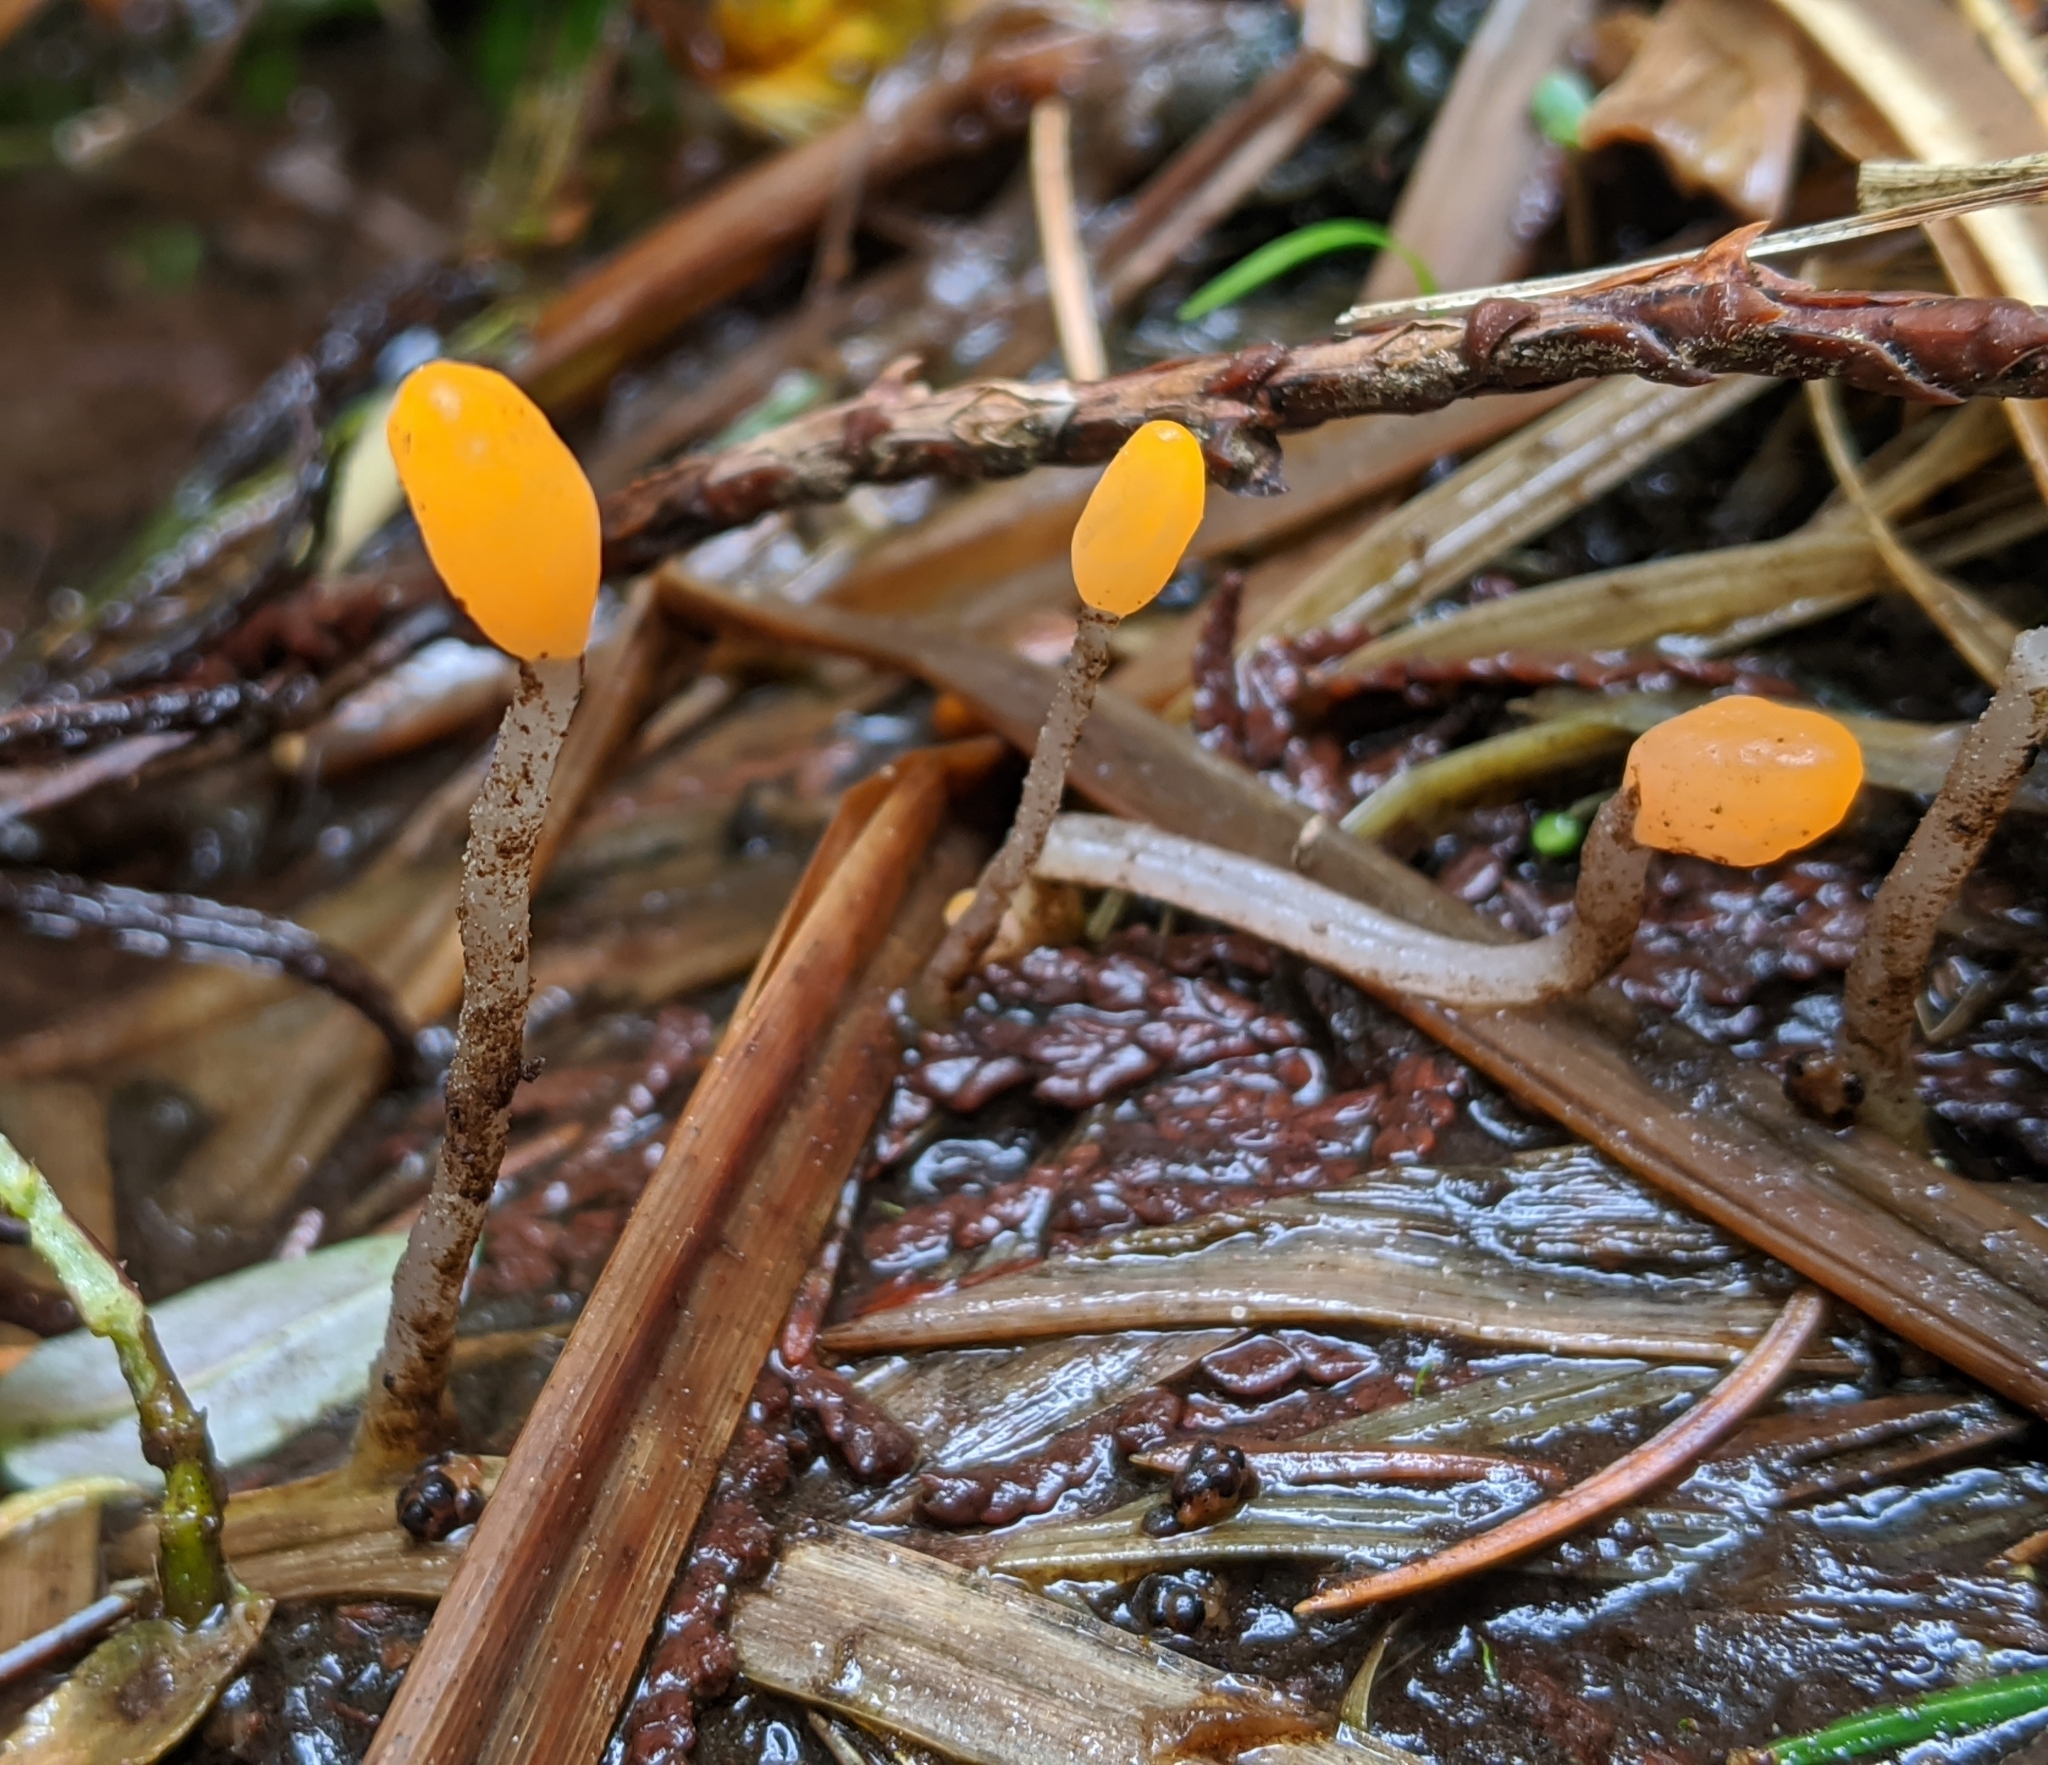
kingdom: Fungi
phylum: Ascomycota
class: Leotiomycetes
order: Helotiales
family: Sclerotiniaceae
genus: Mitrula
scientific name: Mitrula elegans
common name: Swamp beacon
